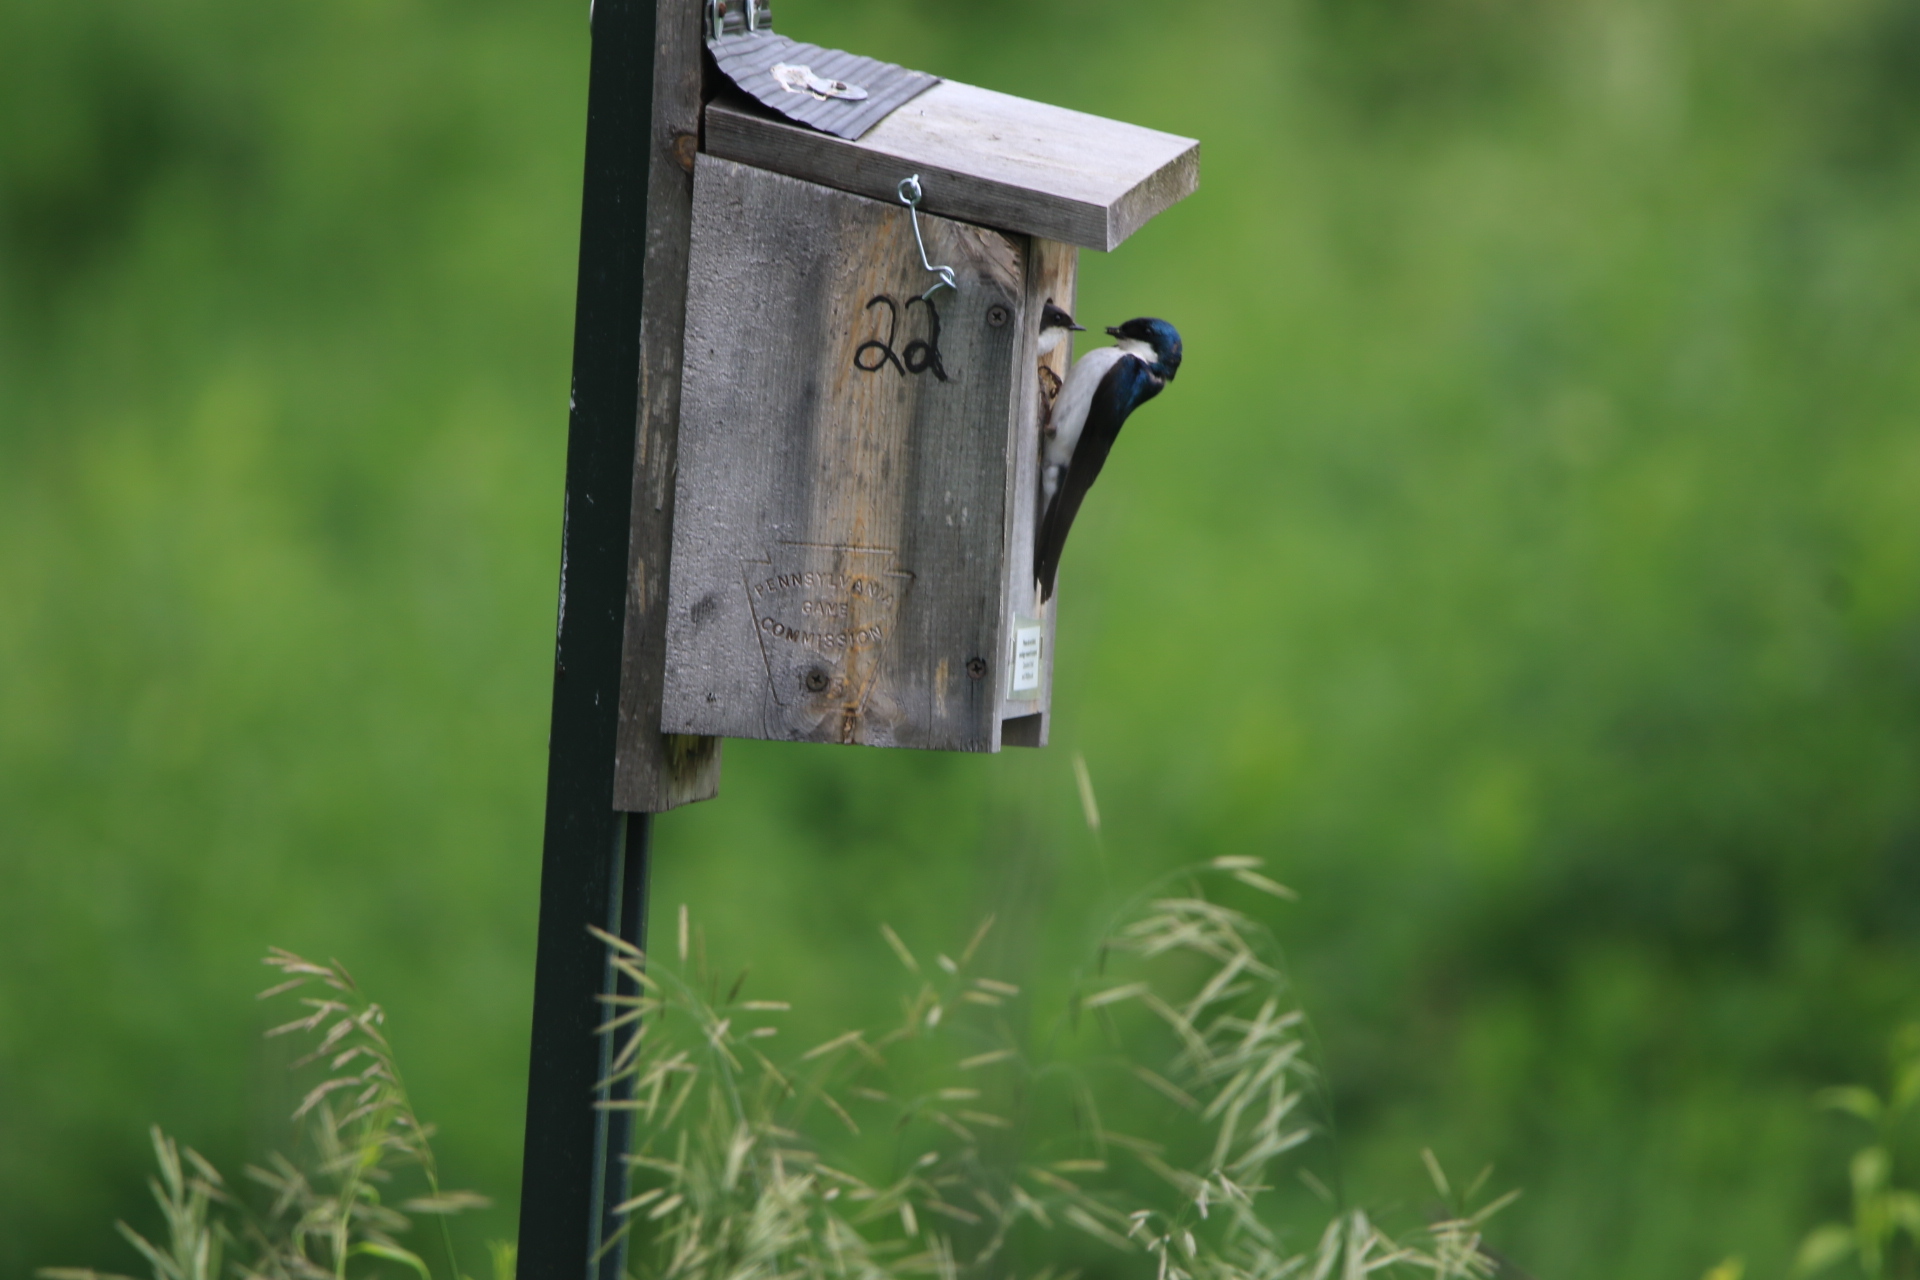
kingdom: Animalia
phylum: Chordata
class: Aves
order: Passeriformes
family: Hirundinidae
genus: Tachycineta
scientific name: Tachycineta bicolor
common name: Tree swallow
